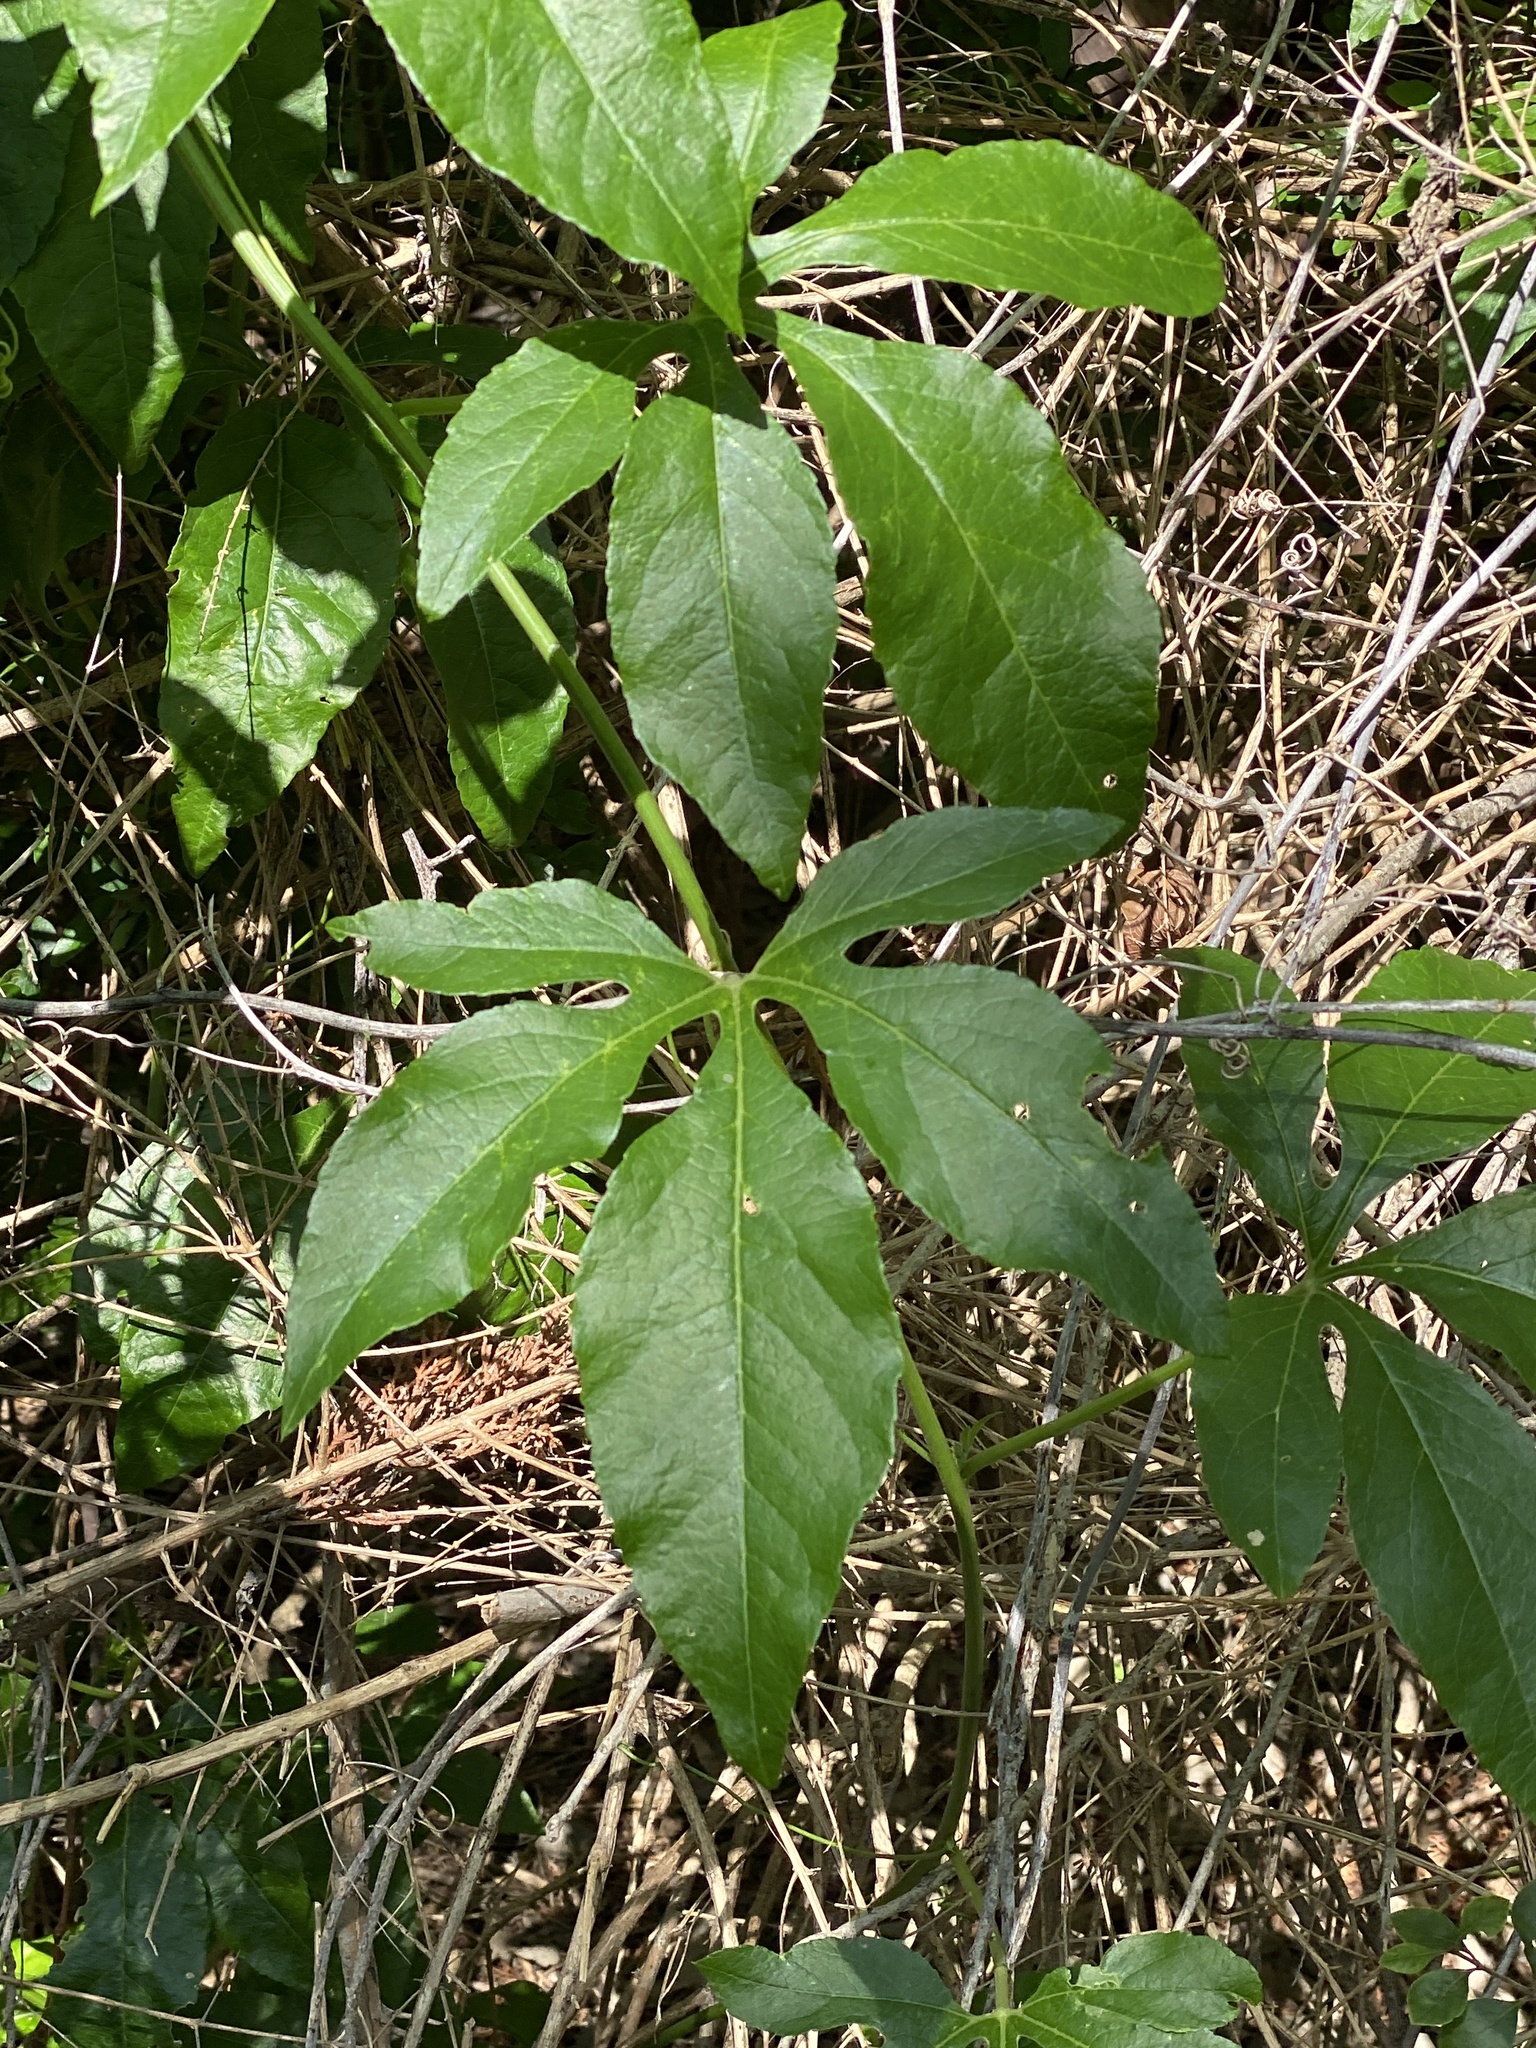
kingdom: Plantae
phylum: Tracheophyta
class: Magnoliopsida
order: Malpighiales
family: Passifloraceae
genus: Passiflora
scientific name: Passiflora
